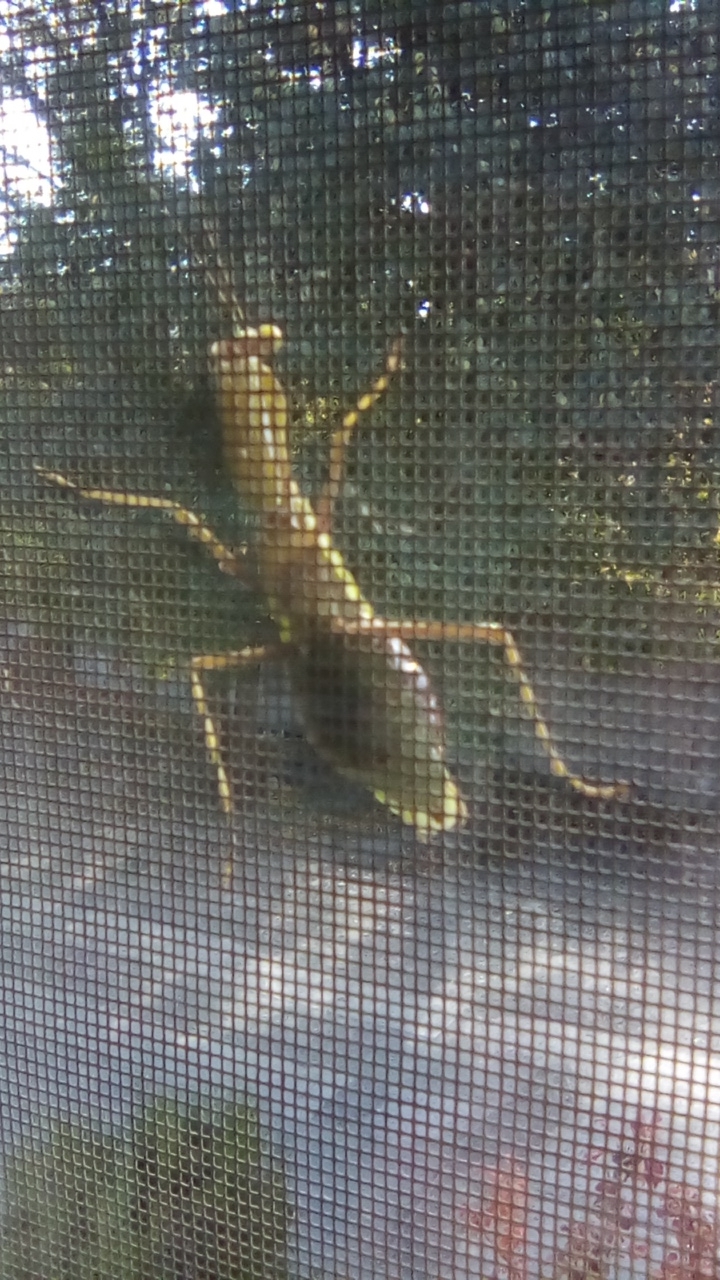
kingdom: Animalia
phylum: Arthropoda
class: Insecta
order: Mantodea
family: Mantidae
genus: Hierodula
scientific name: Hierodula transcaucasica
